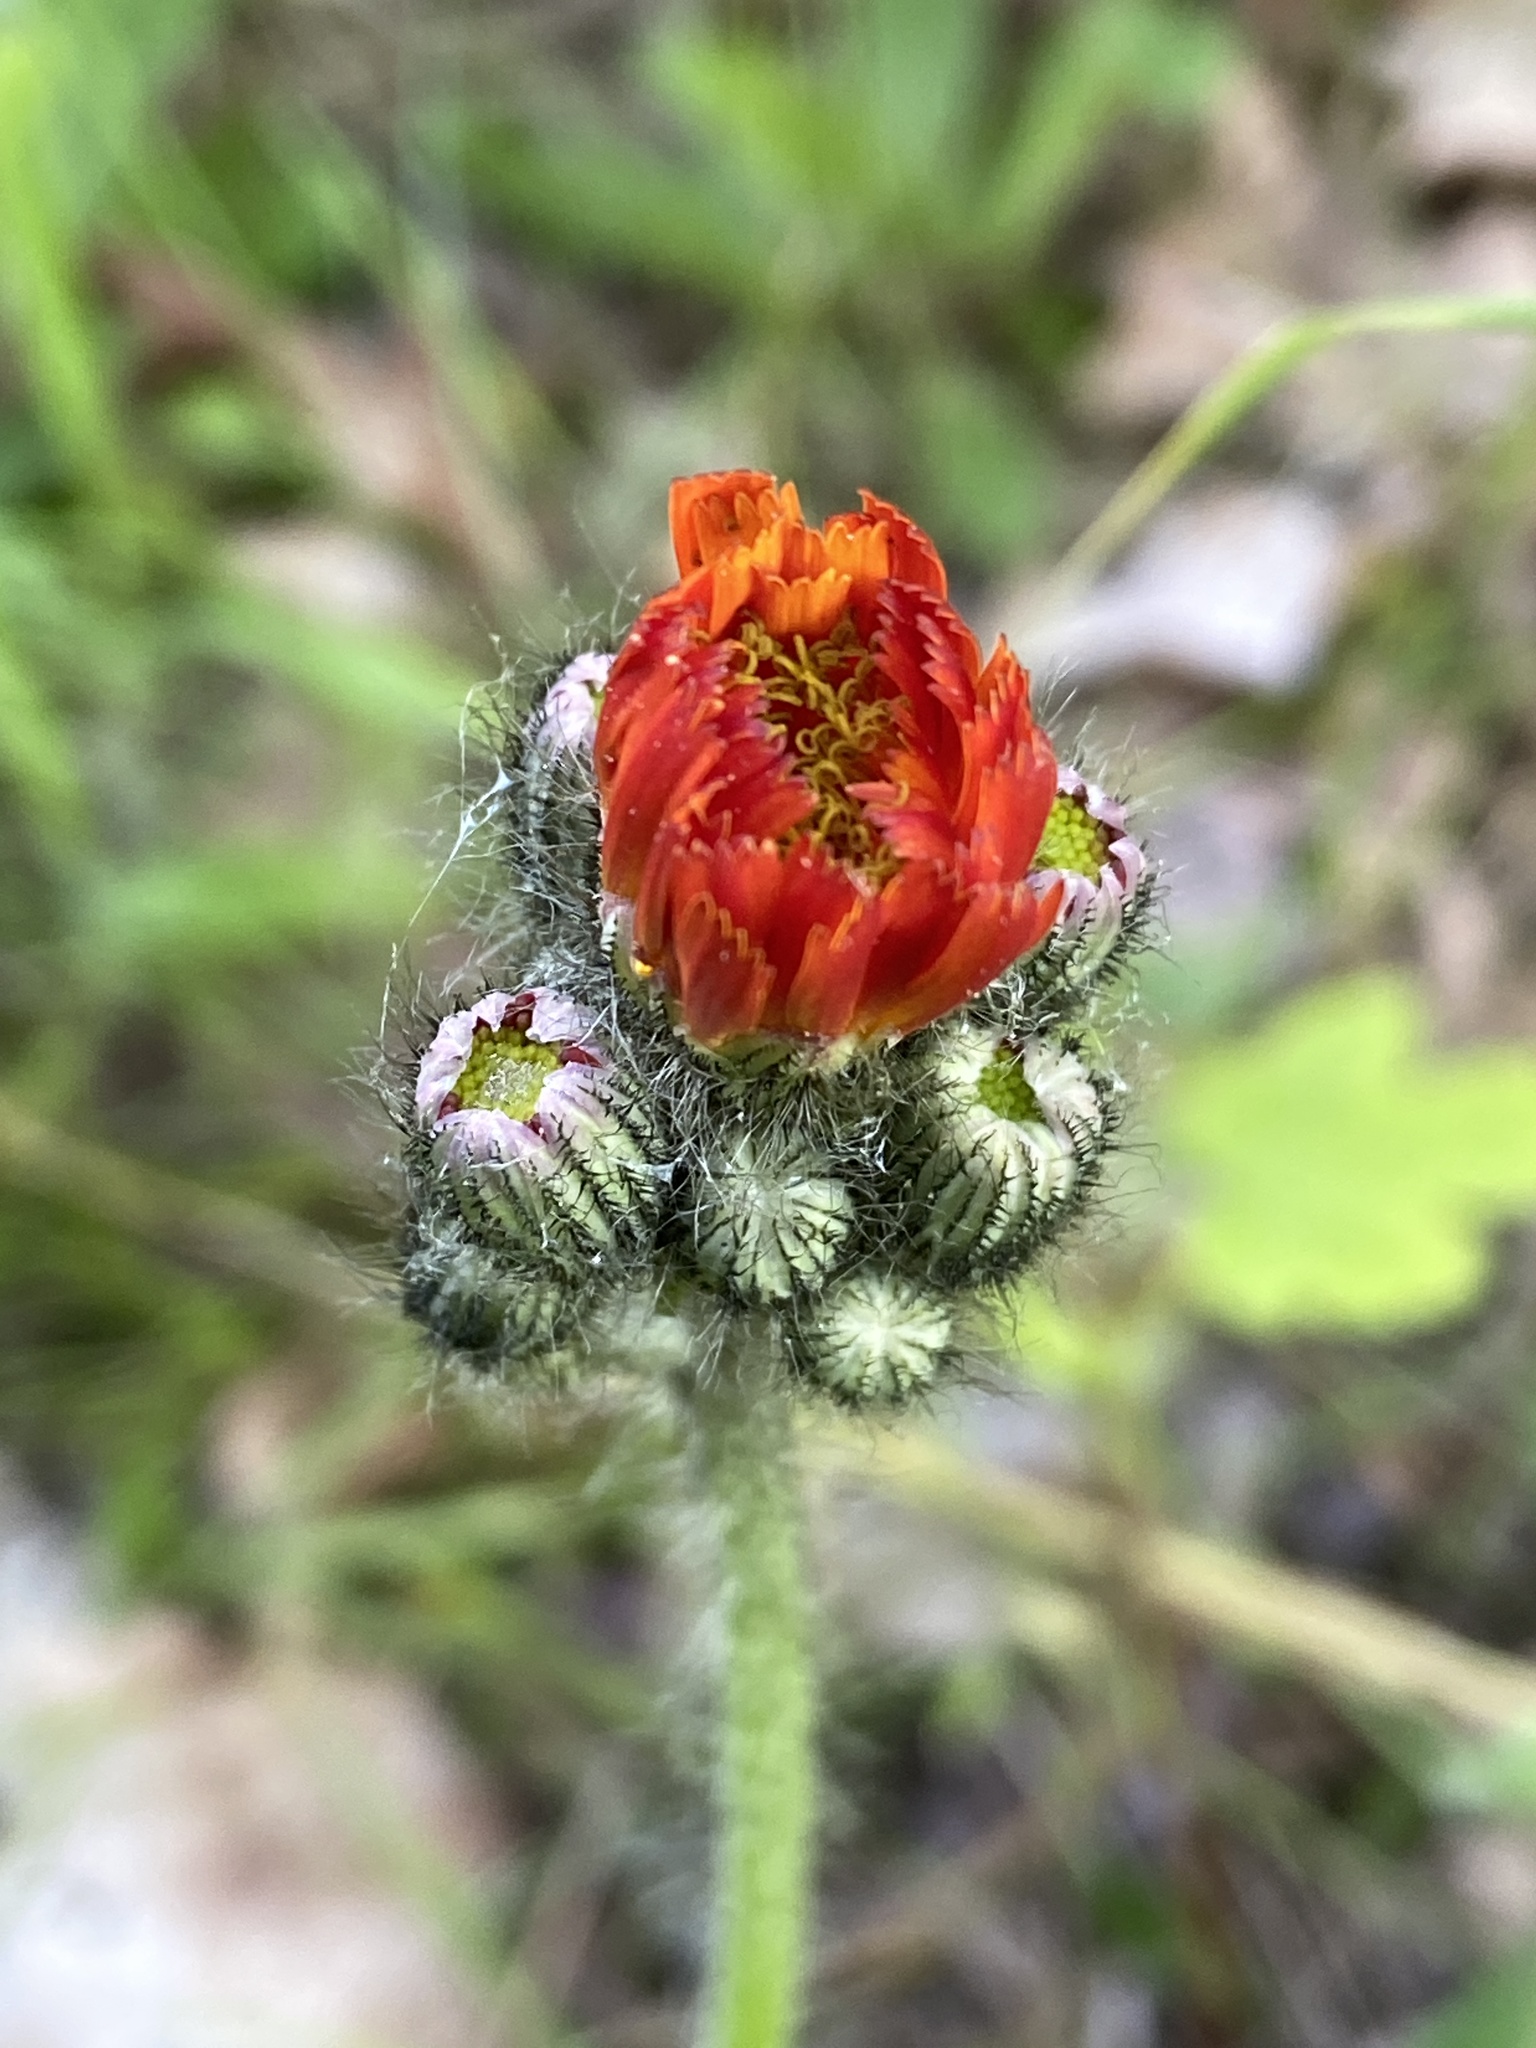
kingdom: Plantae
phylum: Tracheophyta
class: Magnoliopsida
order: Asterales
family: Asteraceae
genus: Pilosella
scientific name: Pilosella aurantiaca
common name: Fox-and-cubs
